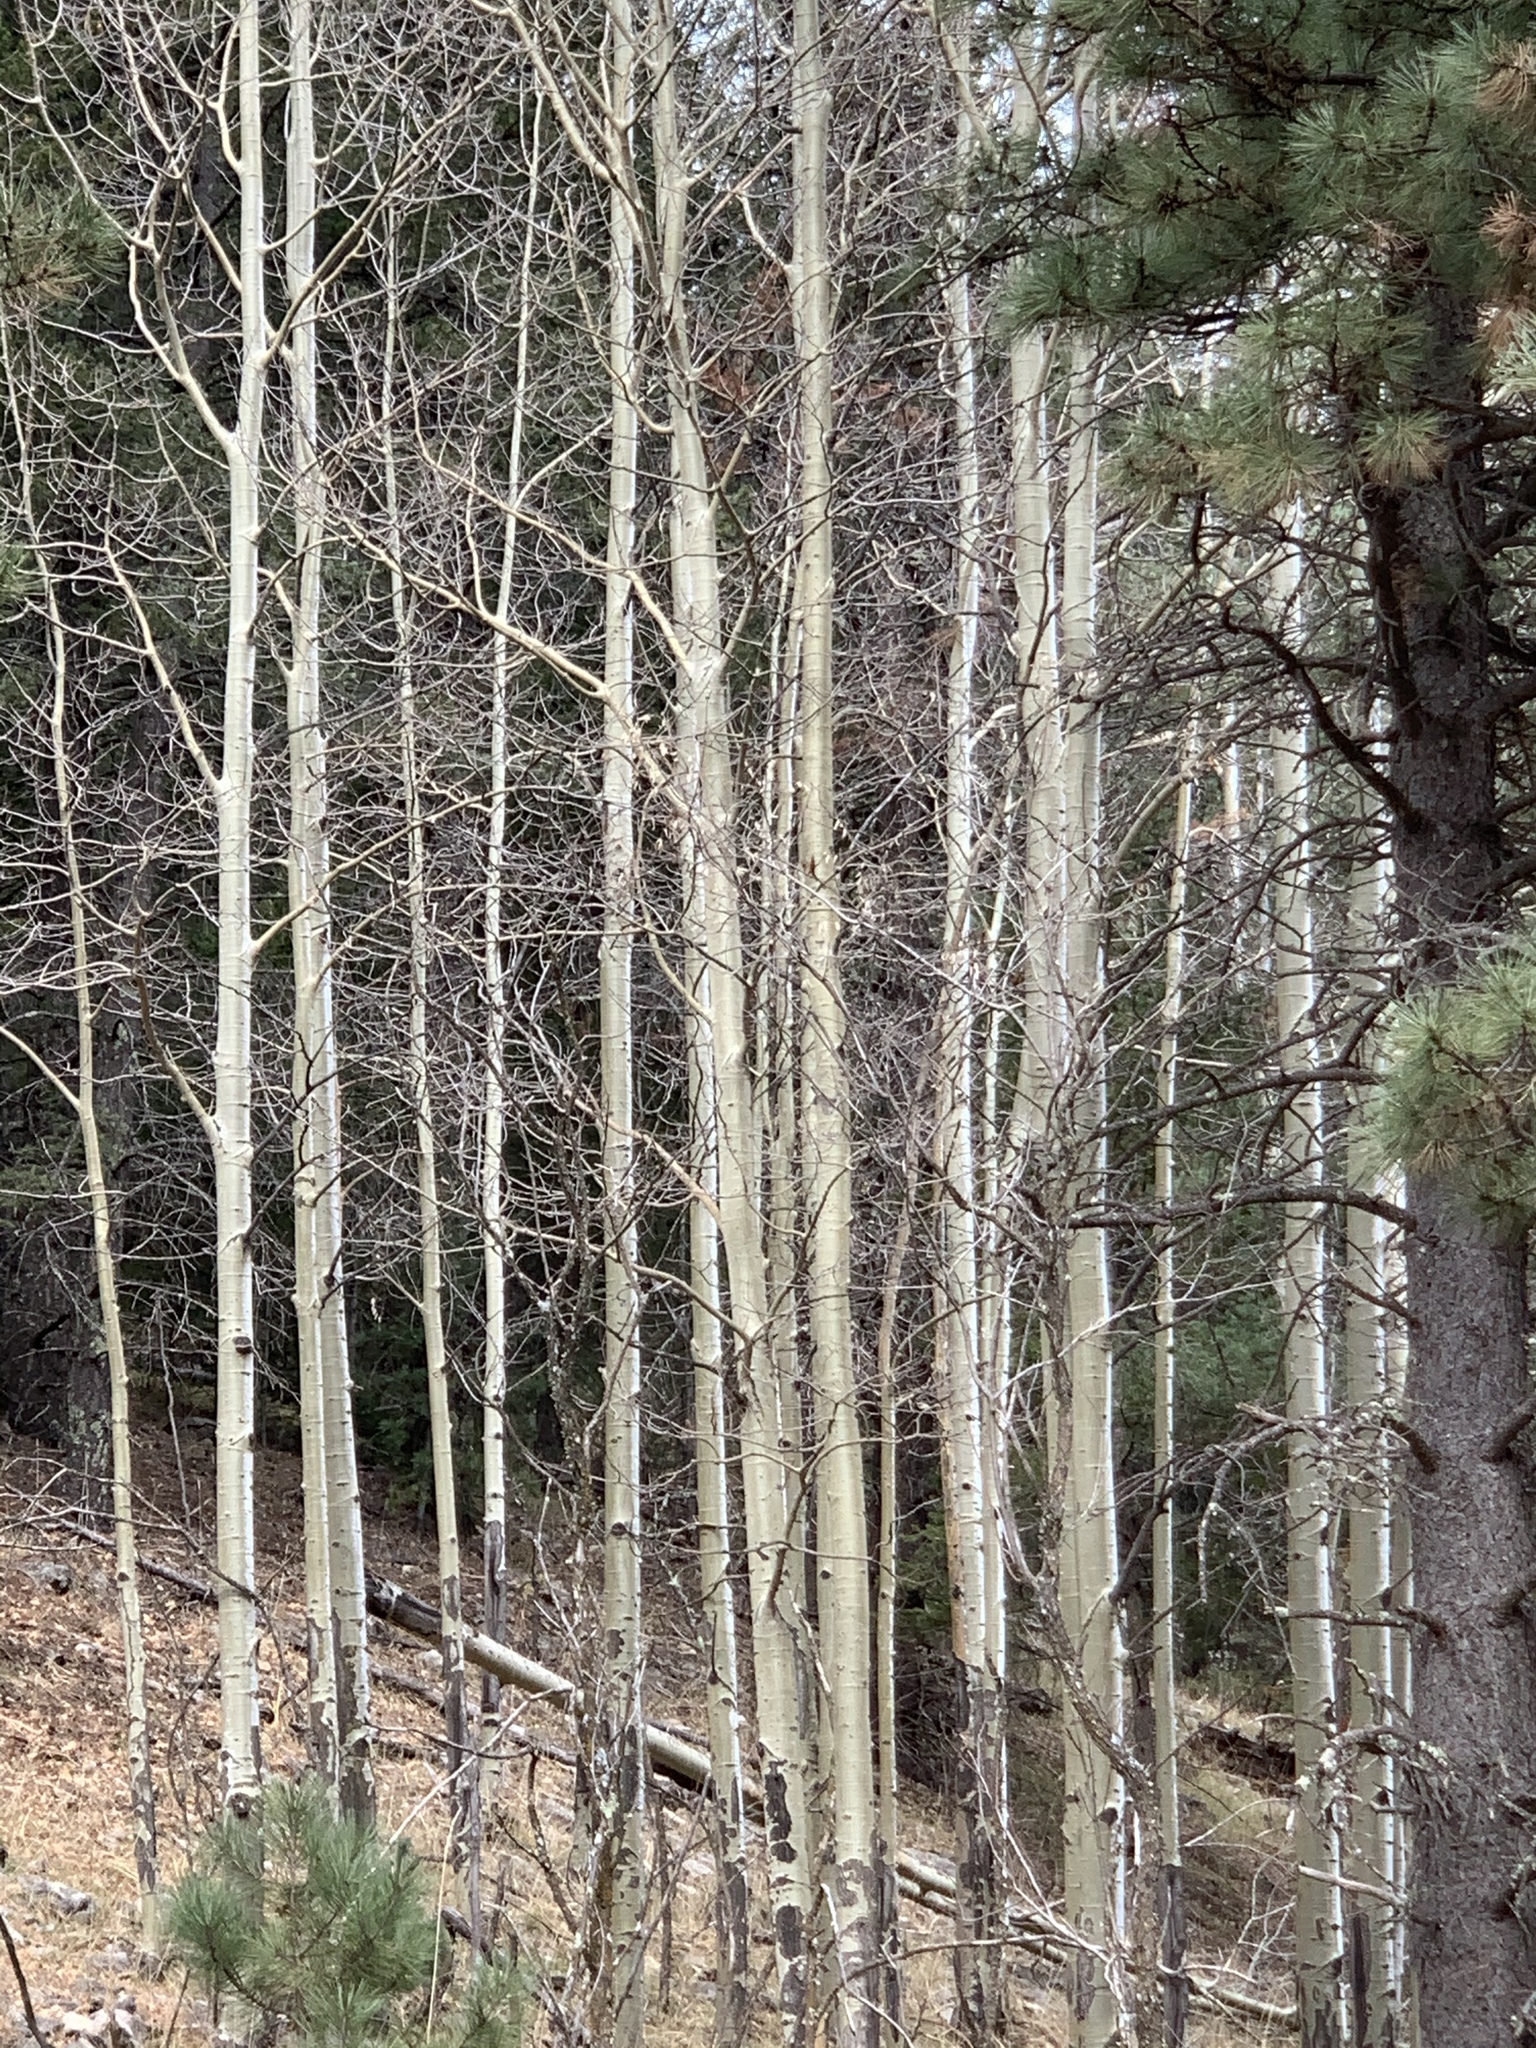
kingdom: Plantae
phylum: Tracheophyta
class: Magnoliopsida
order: Malpighiales
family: Salicaceae
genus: Populus
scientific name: Populus tremuloides
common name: Quaking aspen
